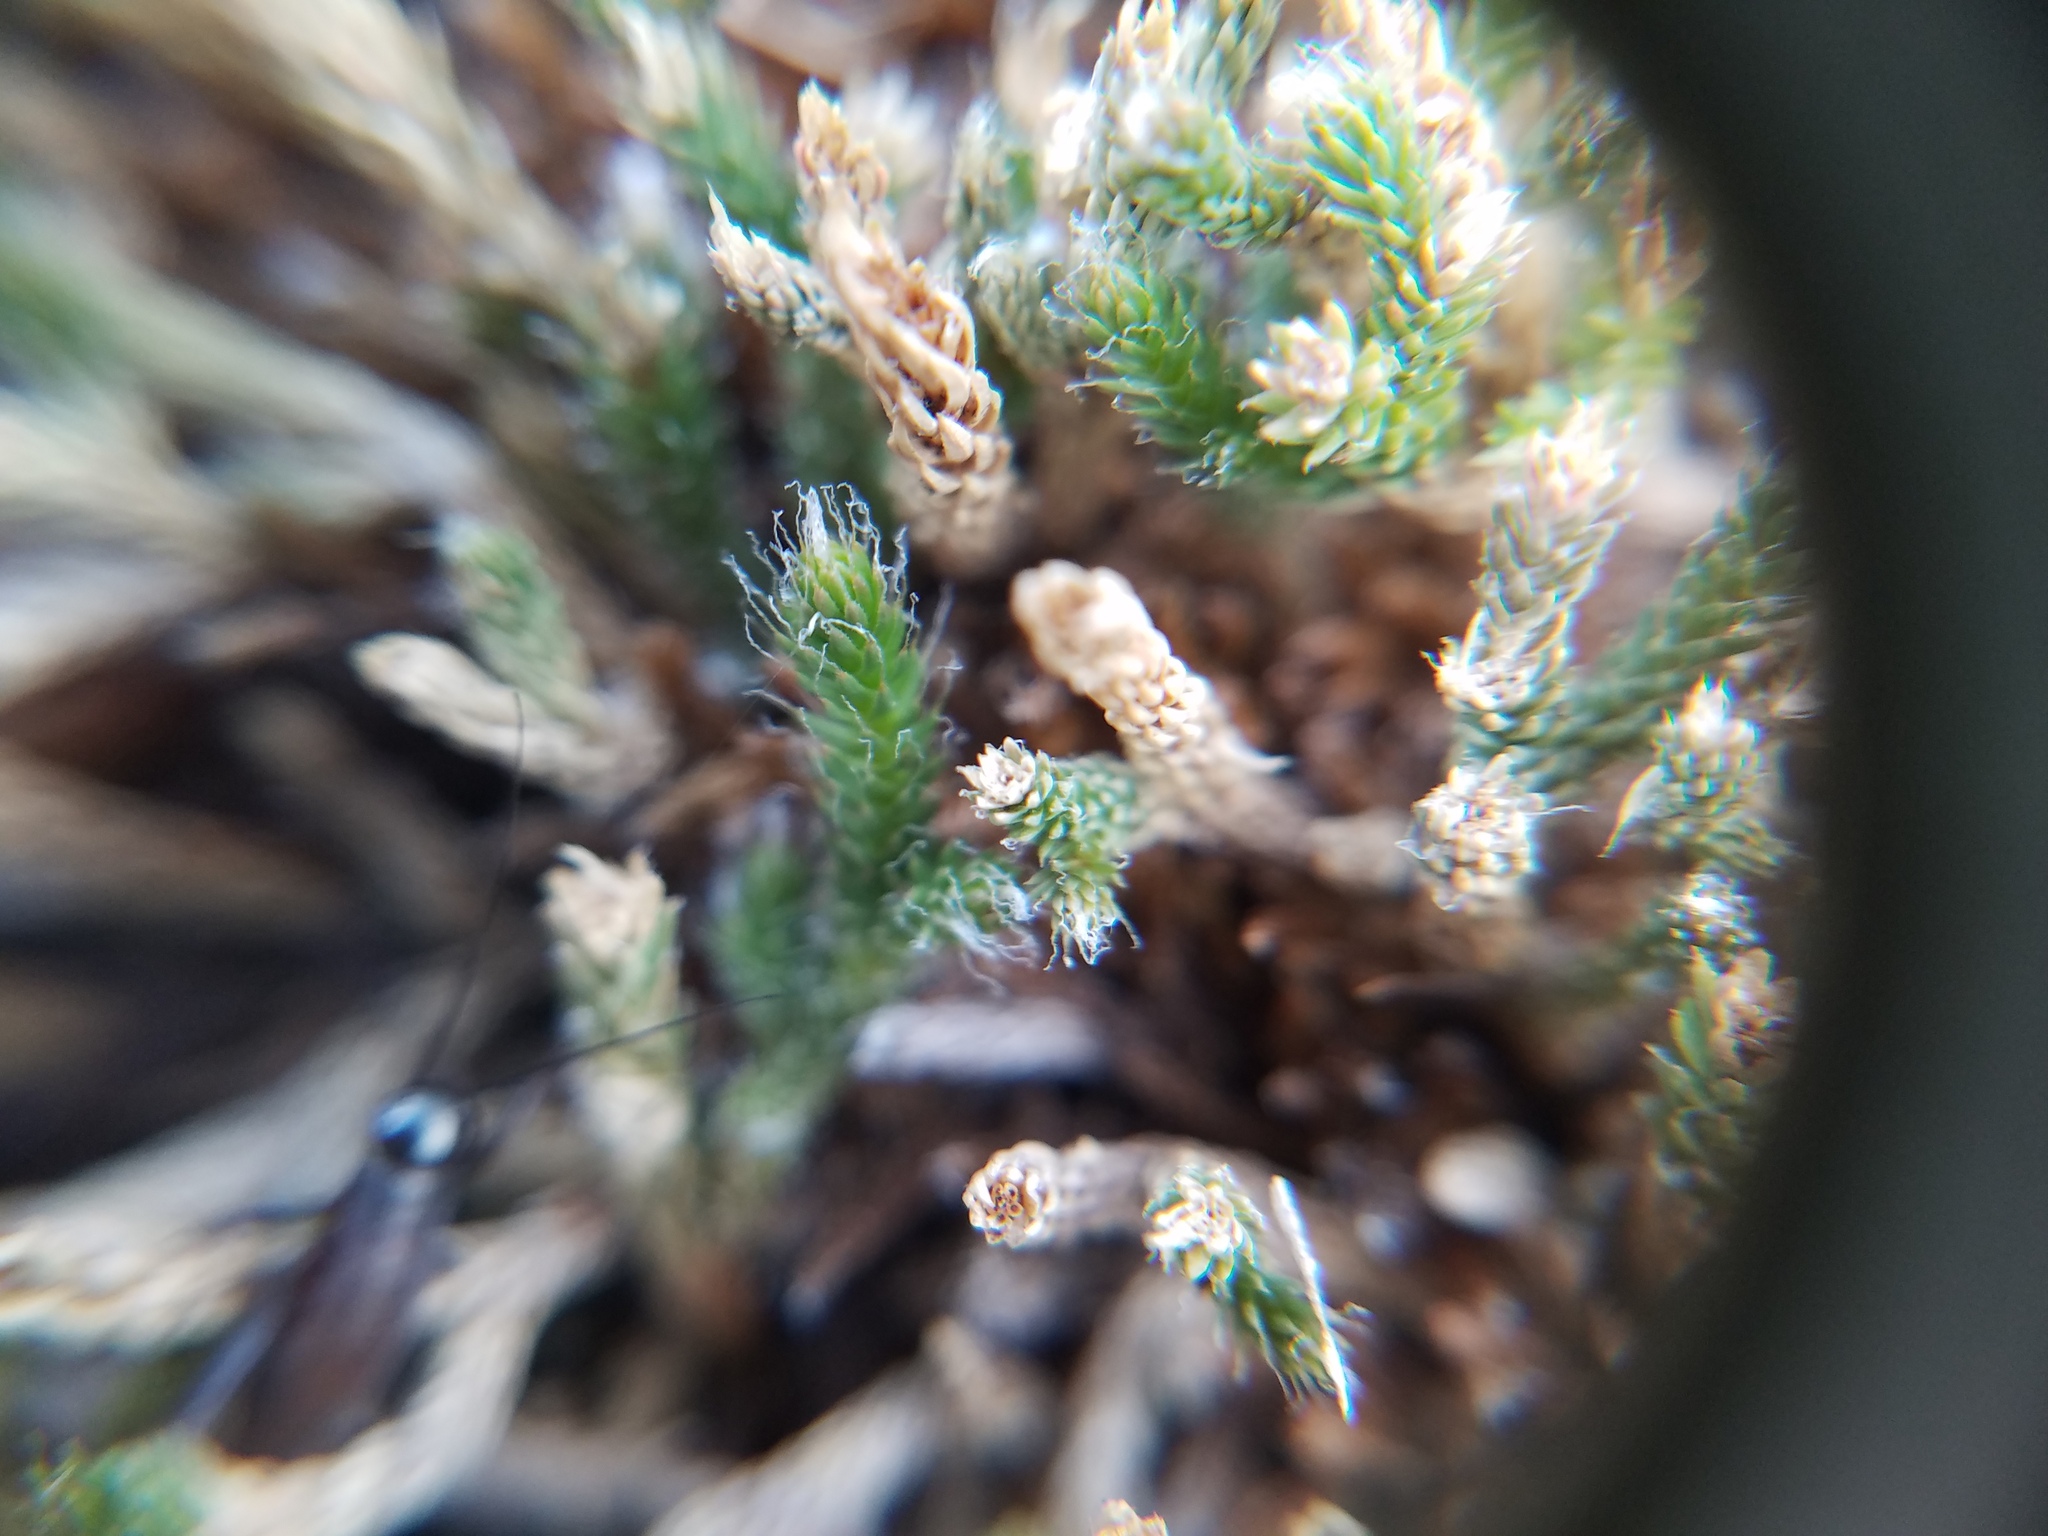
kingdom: Plantae
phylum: Tracheophyta
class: Lycopodiopsida
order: Selaginellales
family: Selaginellaceae
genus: Selaginella
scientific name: Selaginella tortipila
